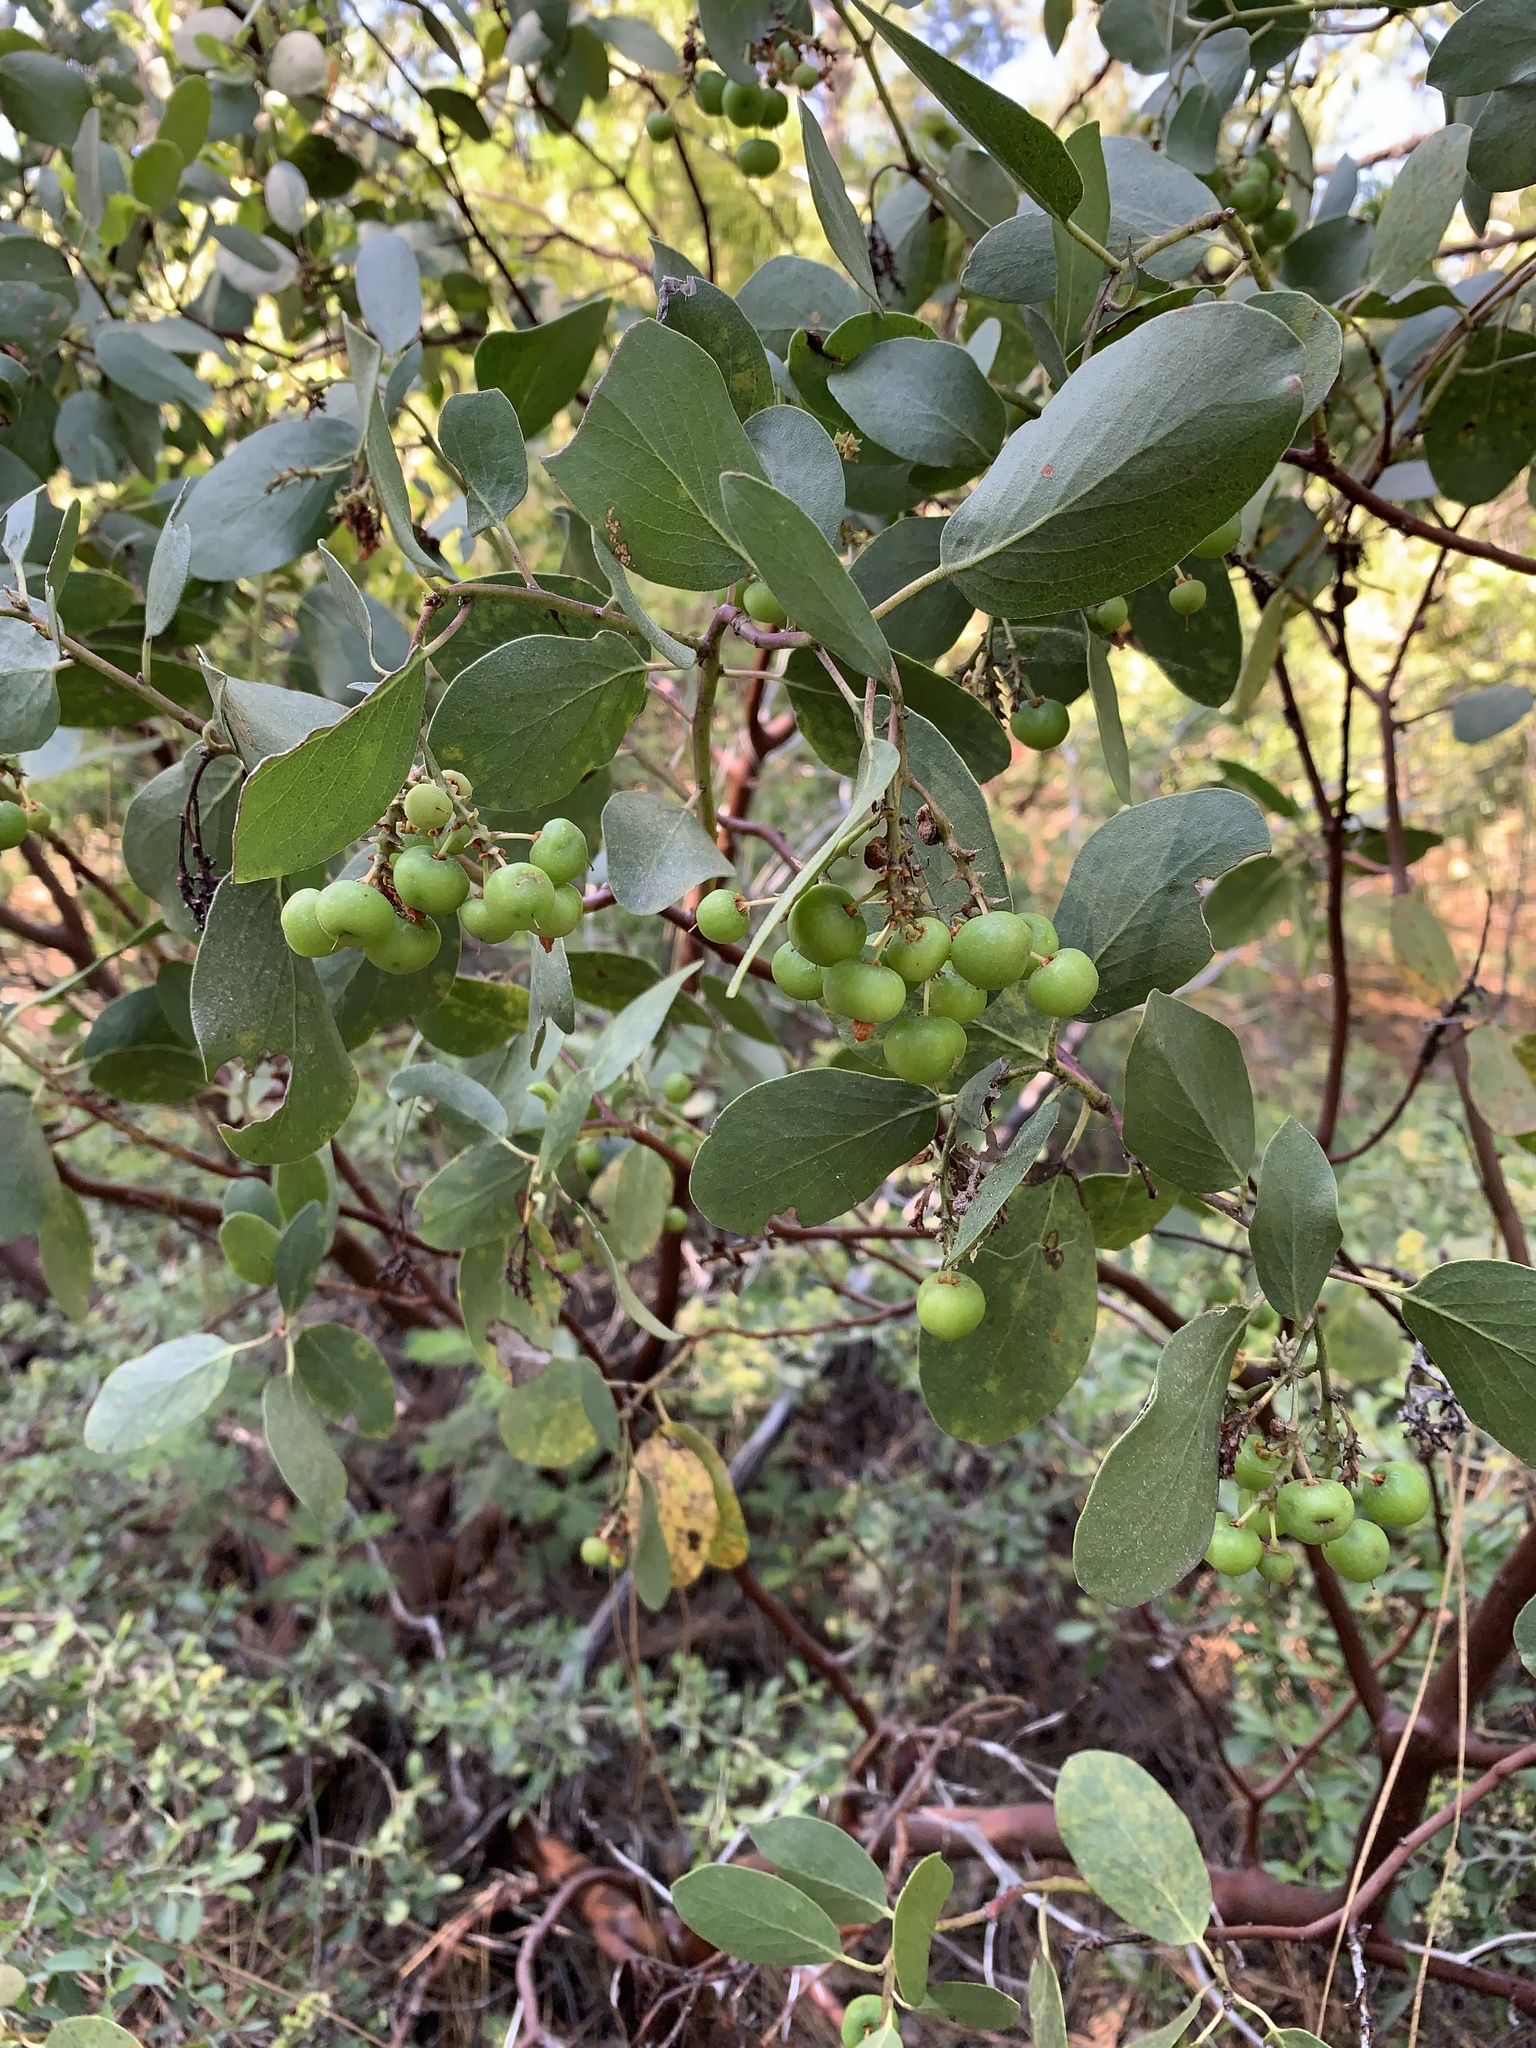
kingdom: Plantae
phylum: Tracheophyta
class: Magnoliopsida
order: Ericales
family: Ericaceae
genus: Arctostaphylos
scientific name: Arctostaphylos patula
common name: Green-leaf manzanita
